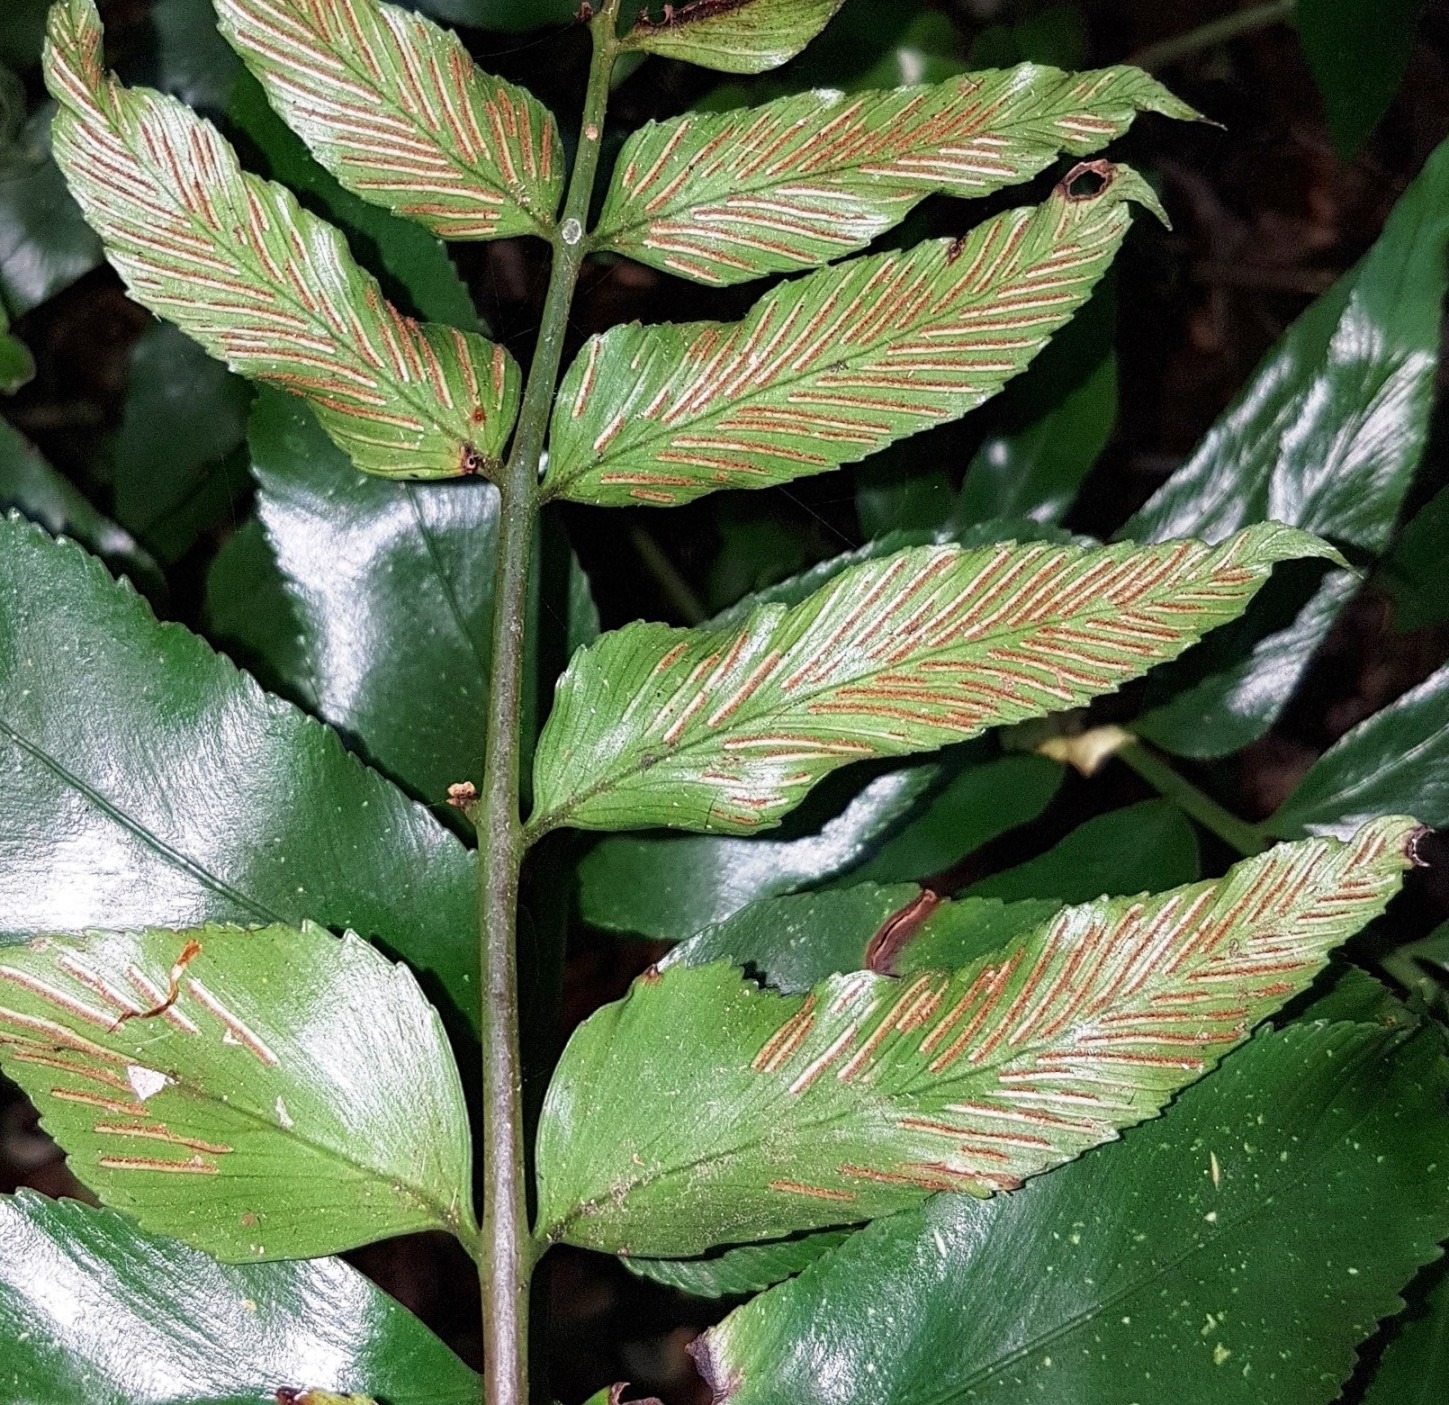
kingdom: Plantae
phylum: Tracheophyta
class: Polypodiopsida
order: Polypodiales
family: Aspleniaceae
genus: Asplenium
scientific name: Asplenium oblongifolium
